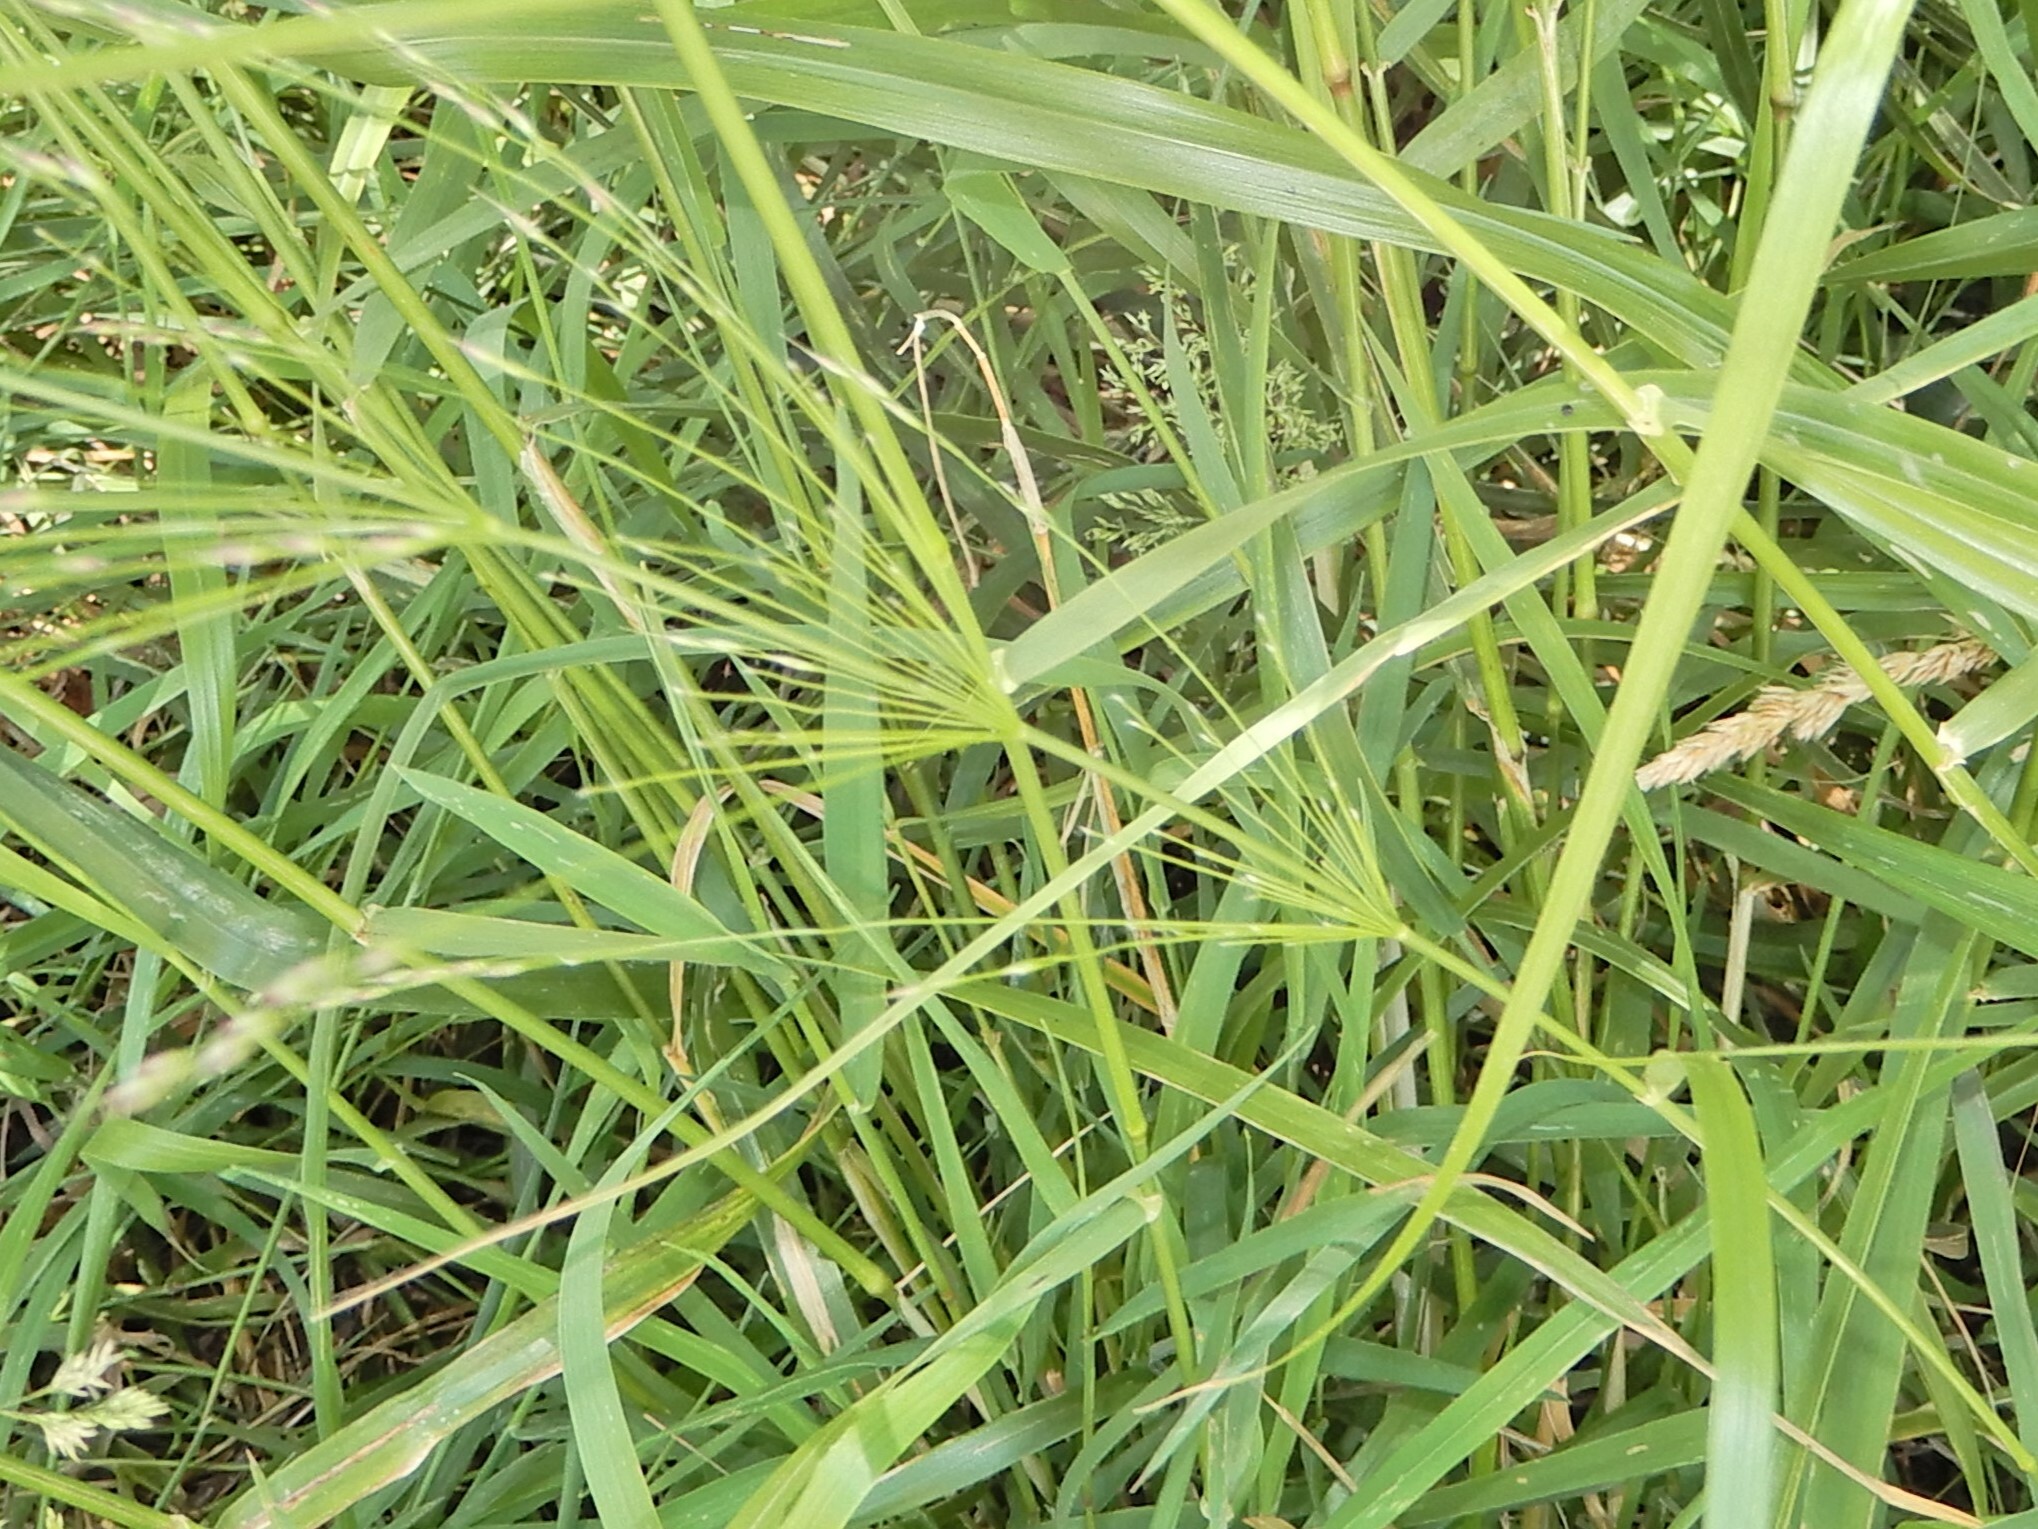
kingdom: Plantae
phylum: Tracheophyta
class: Liliopsida
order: Poales
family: Poaceae
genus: Oloptum
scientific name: Oloptum thomasii
